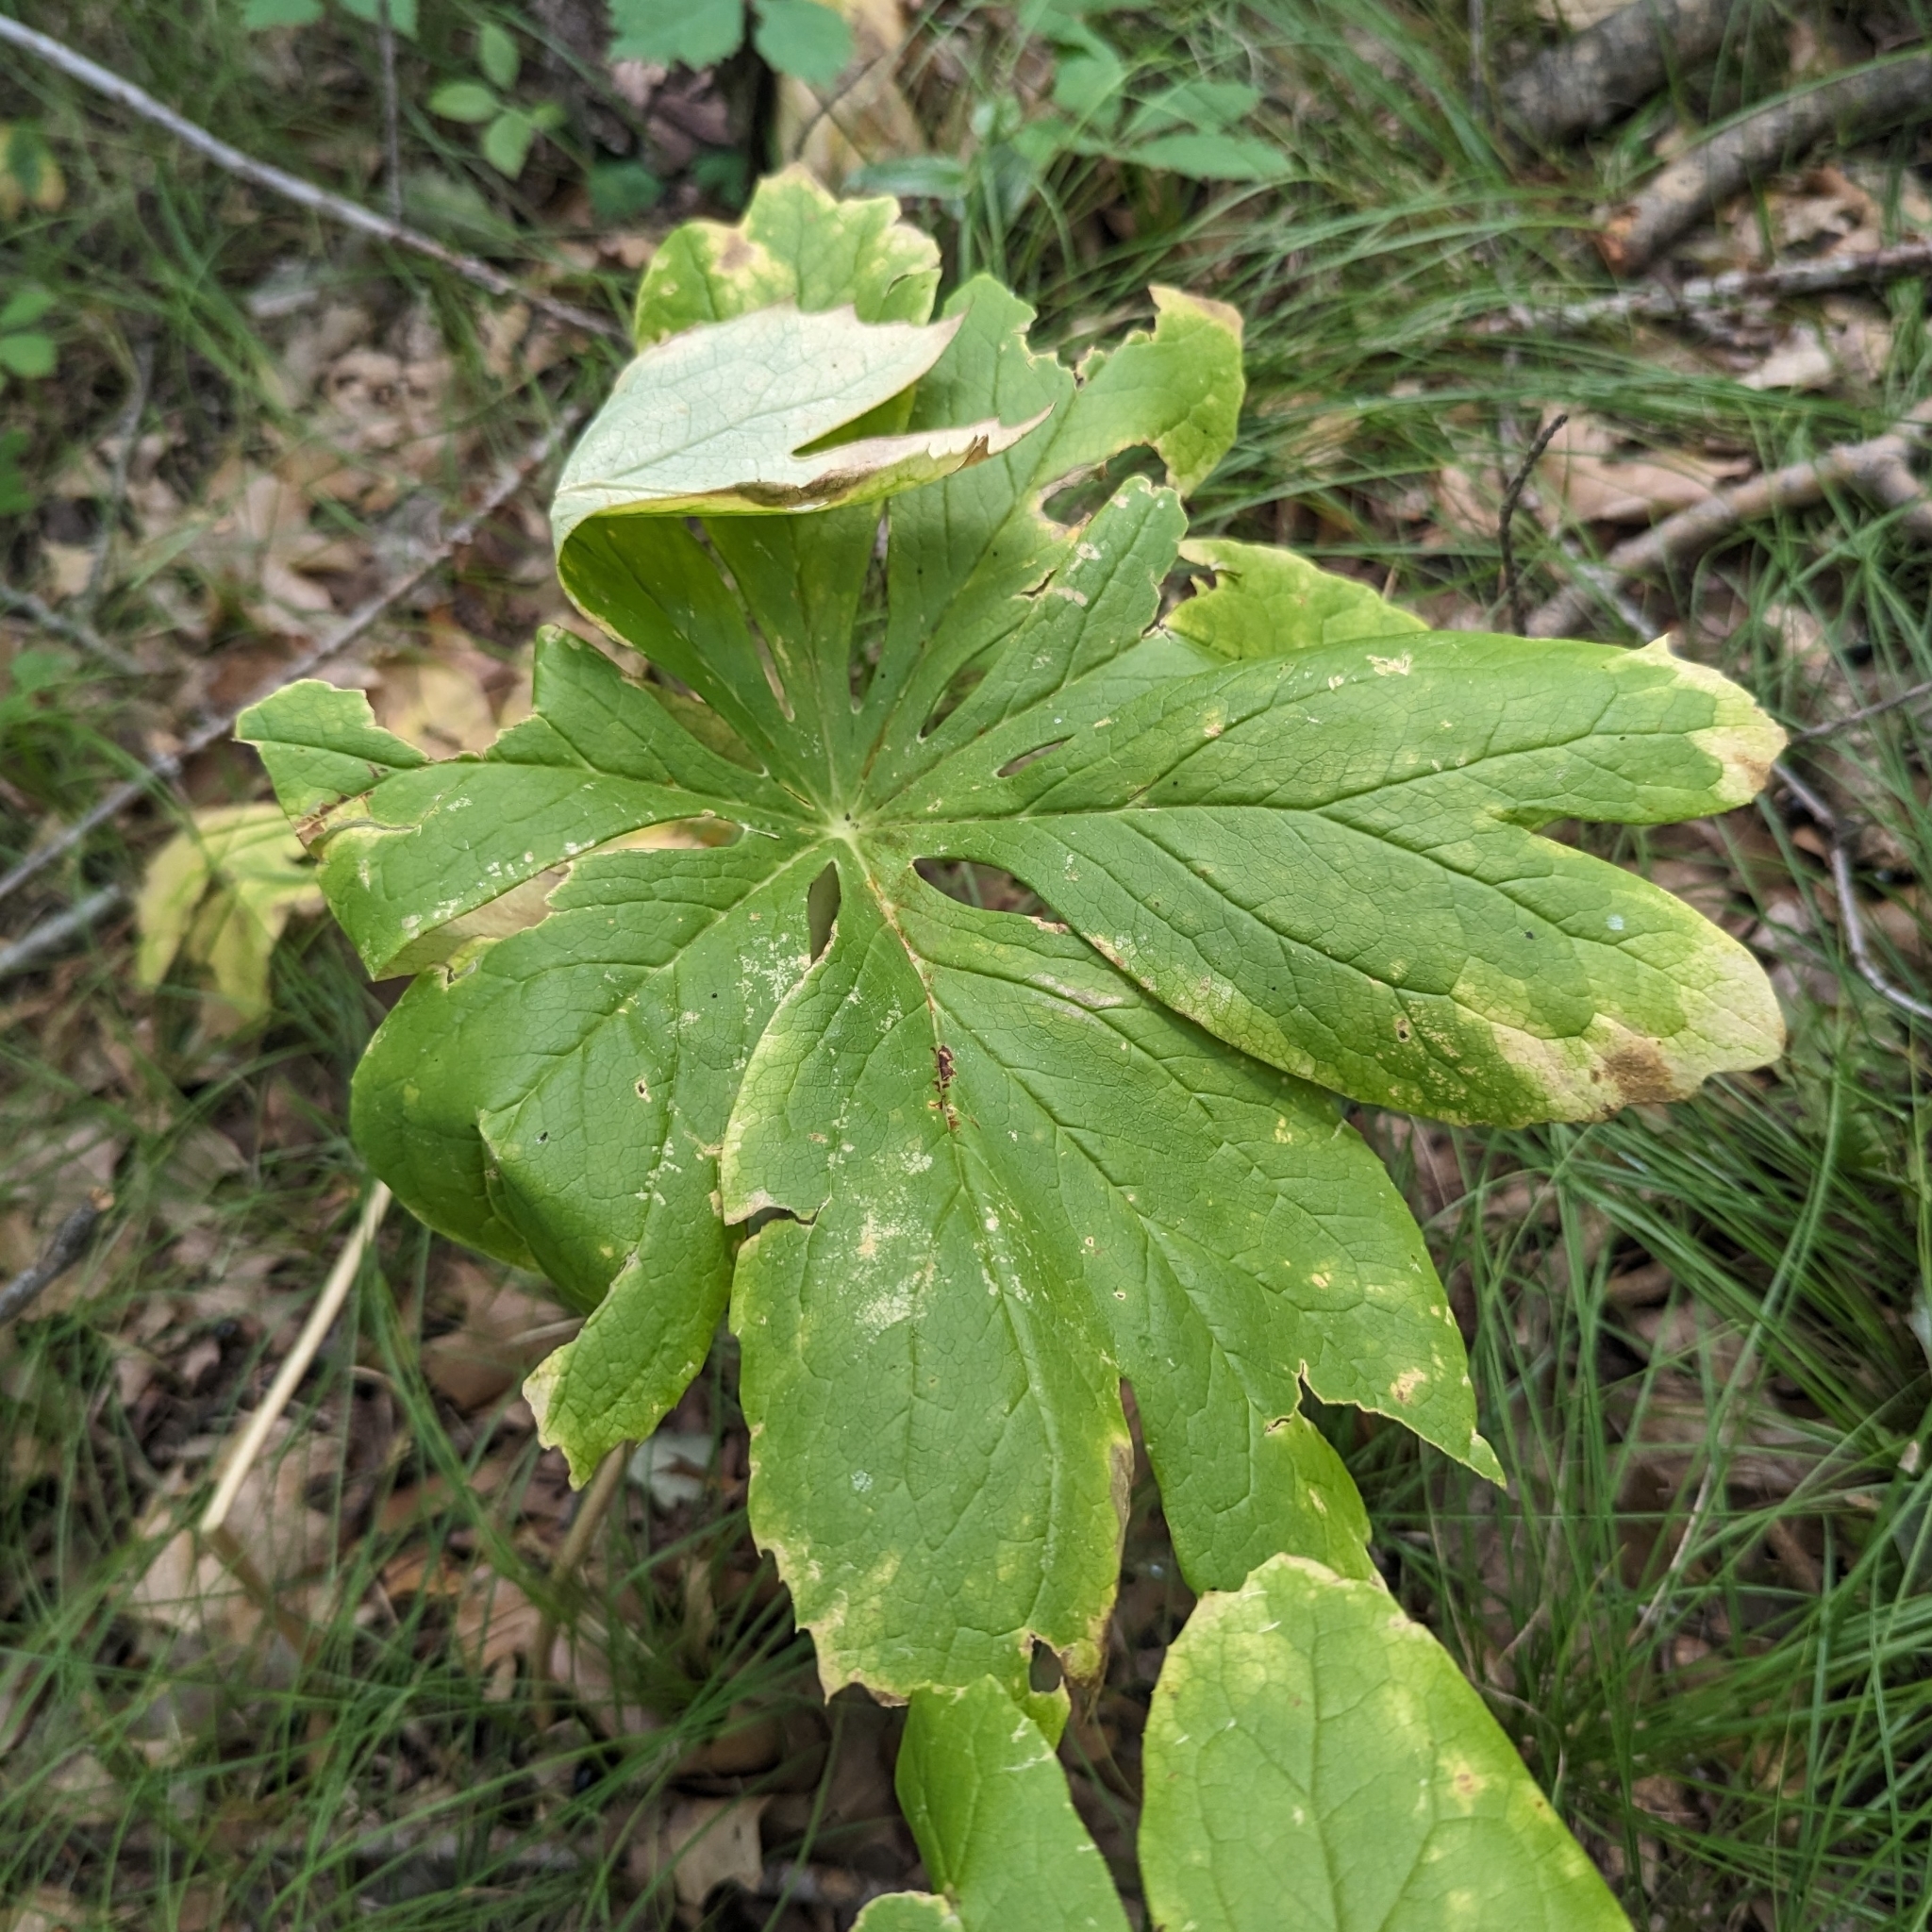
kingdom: Plantae
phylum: Tracheophyta
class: Magnoliopsida
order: Ranunculales
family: Berberidaceae
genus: Podophyllum
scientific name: Podophyllum peltatum
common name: Wild mandrake
